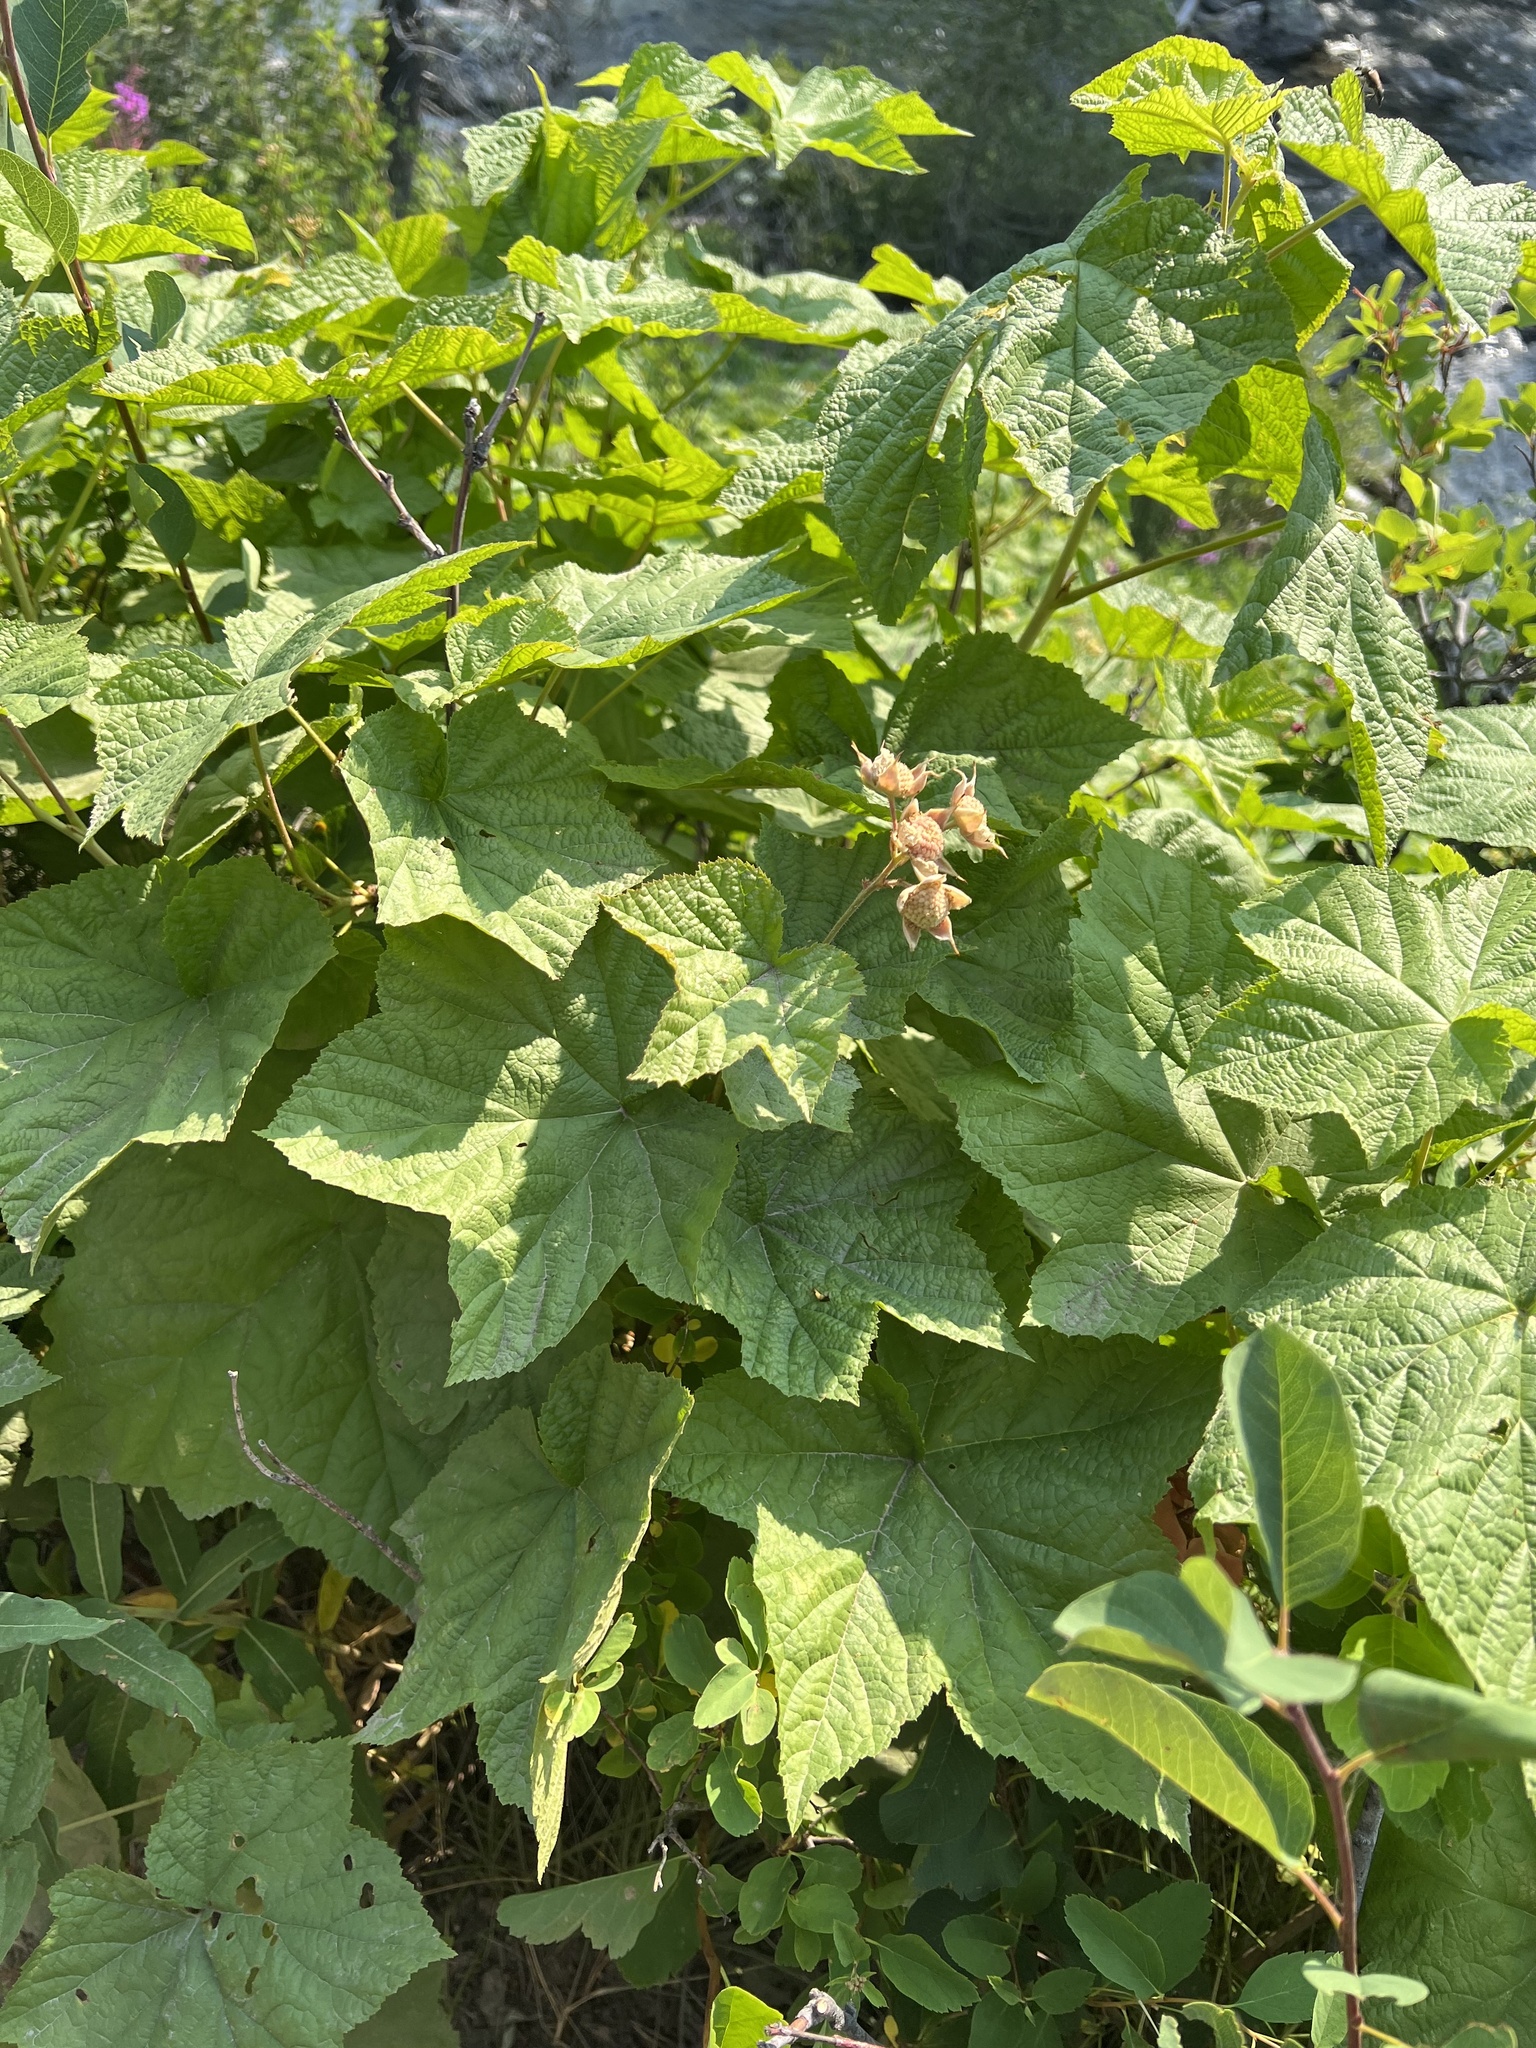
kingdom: Plantae
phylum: Tracheophyta
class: Magnoliopsida
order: Rosales
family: Rosaceae
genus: Rubus
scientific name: Rubus parviflorus
